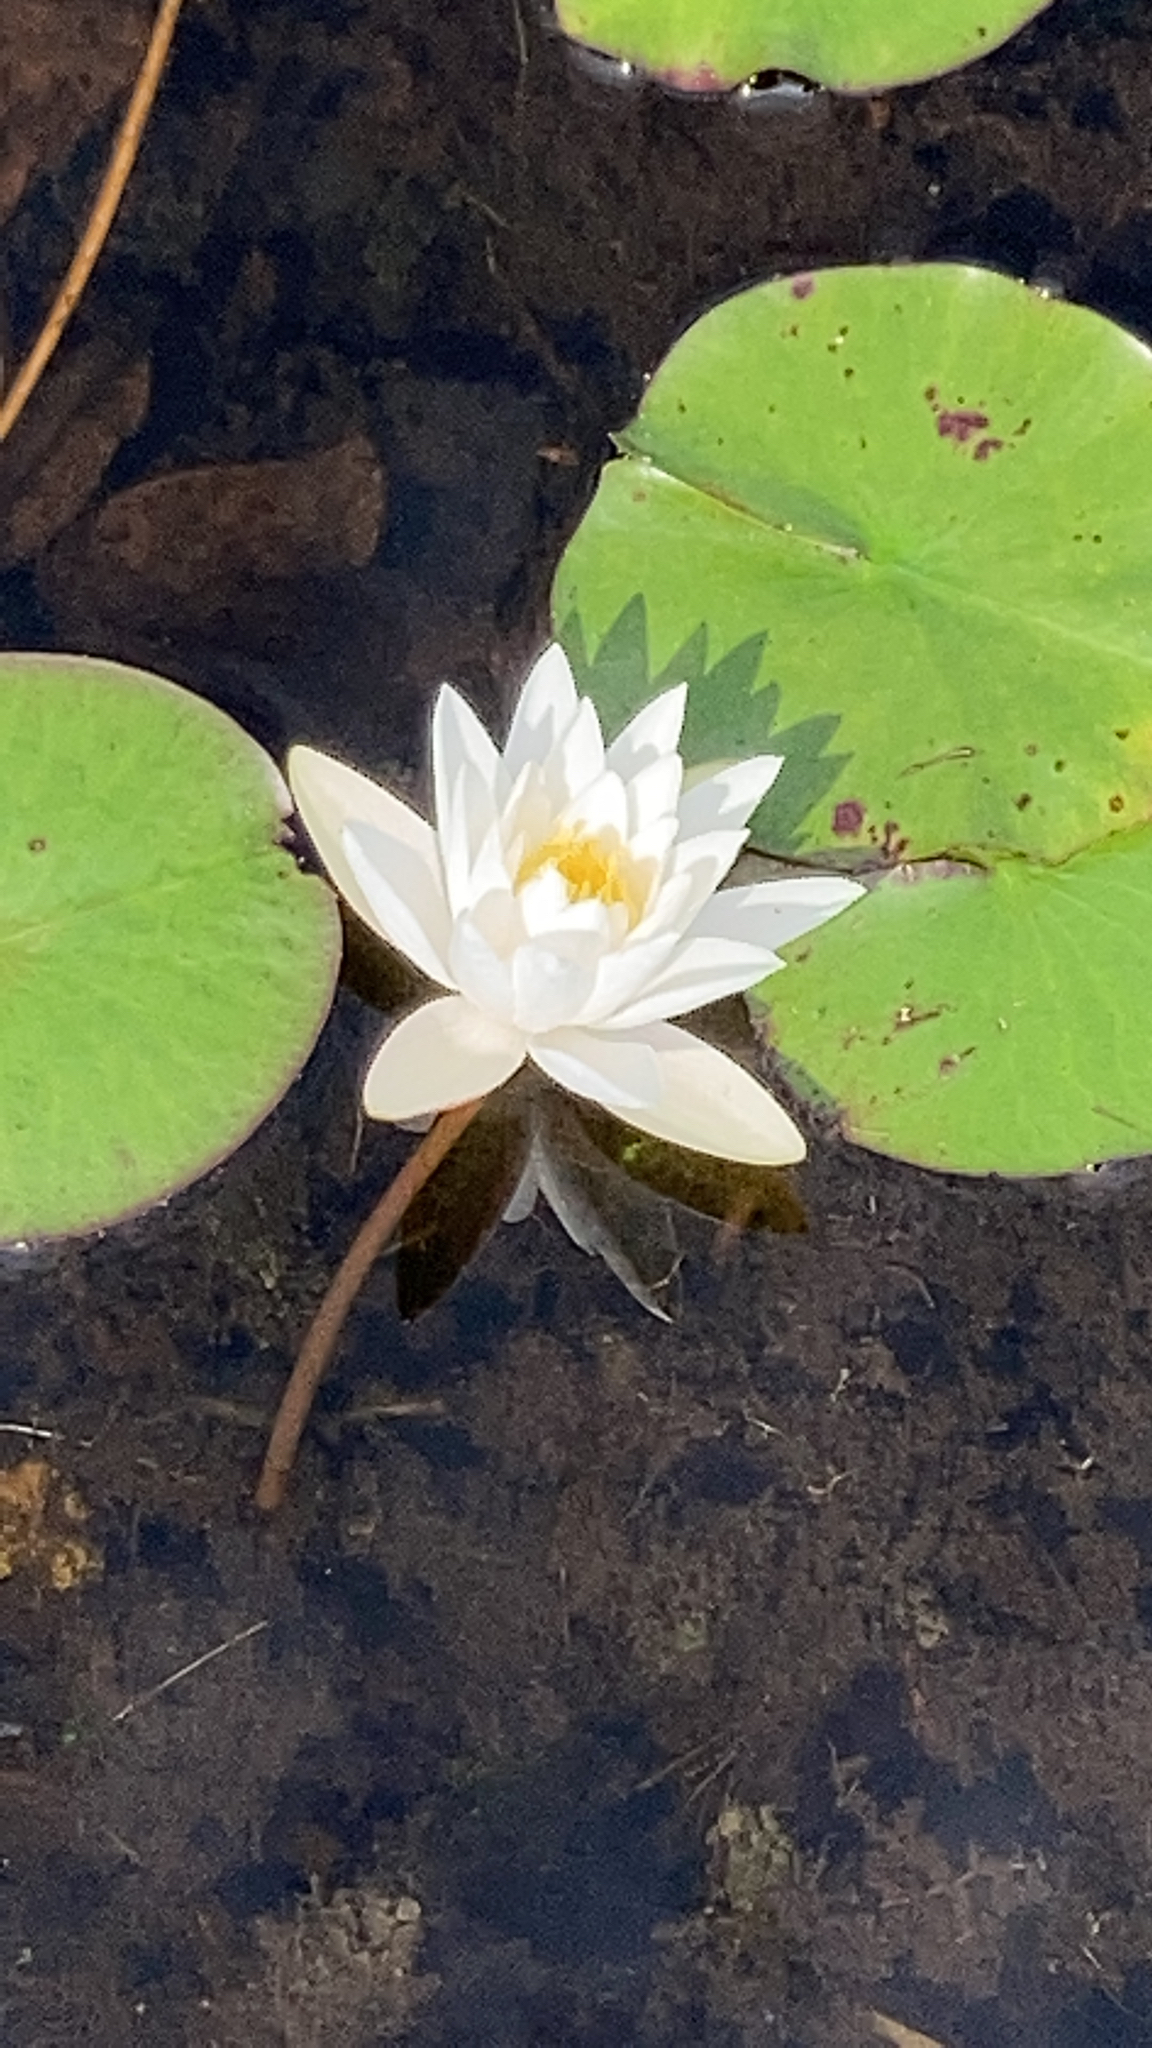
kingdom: Plantae
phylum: Tracheophyta
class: Magnoliopsida
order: Nymphaeales
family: Nymphaeaceae
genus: Nymphaea
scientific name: Nymphaea odorata
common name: Fragrant water-lily
